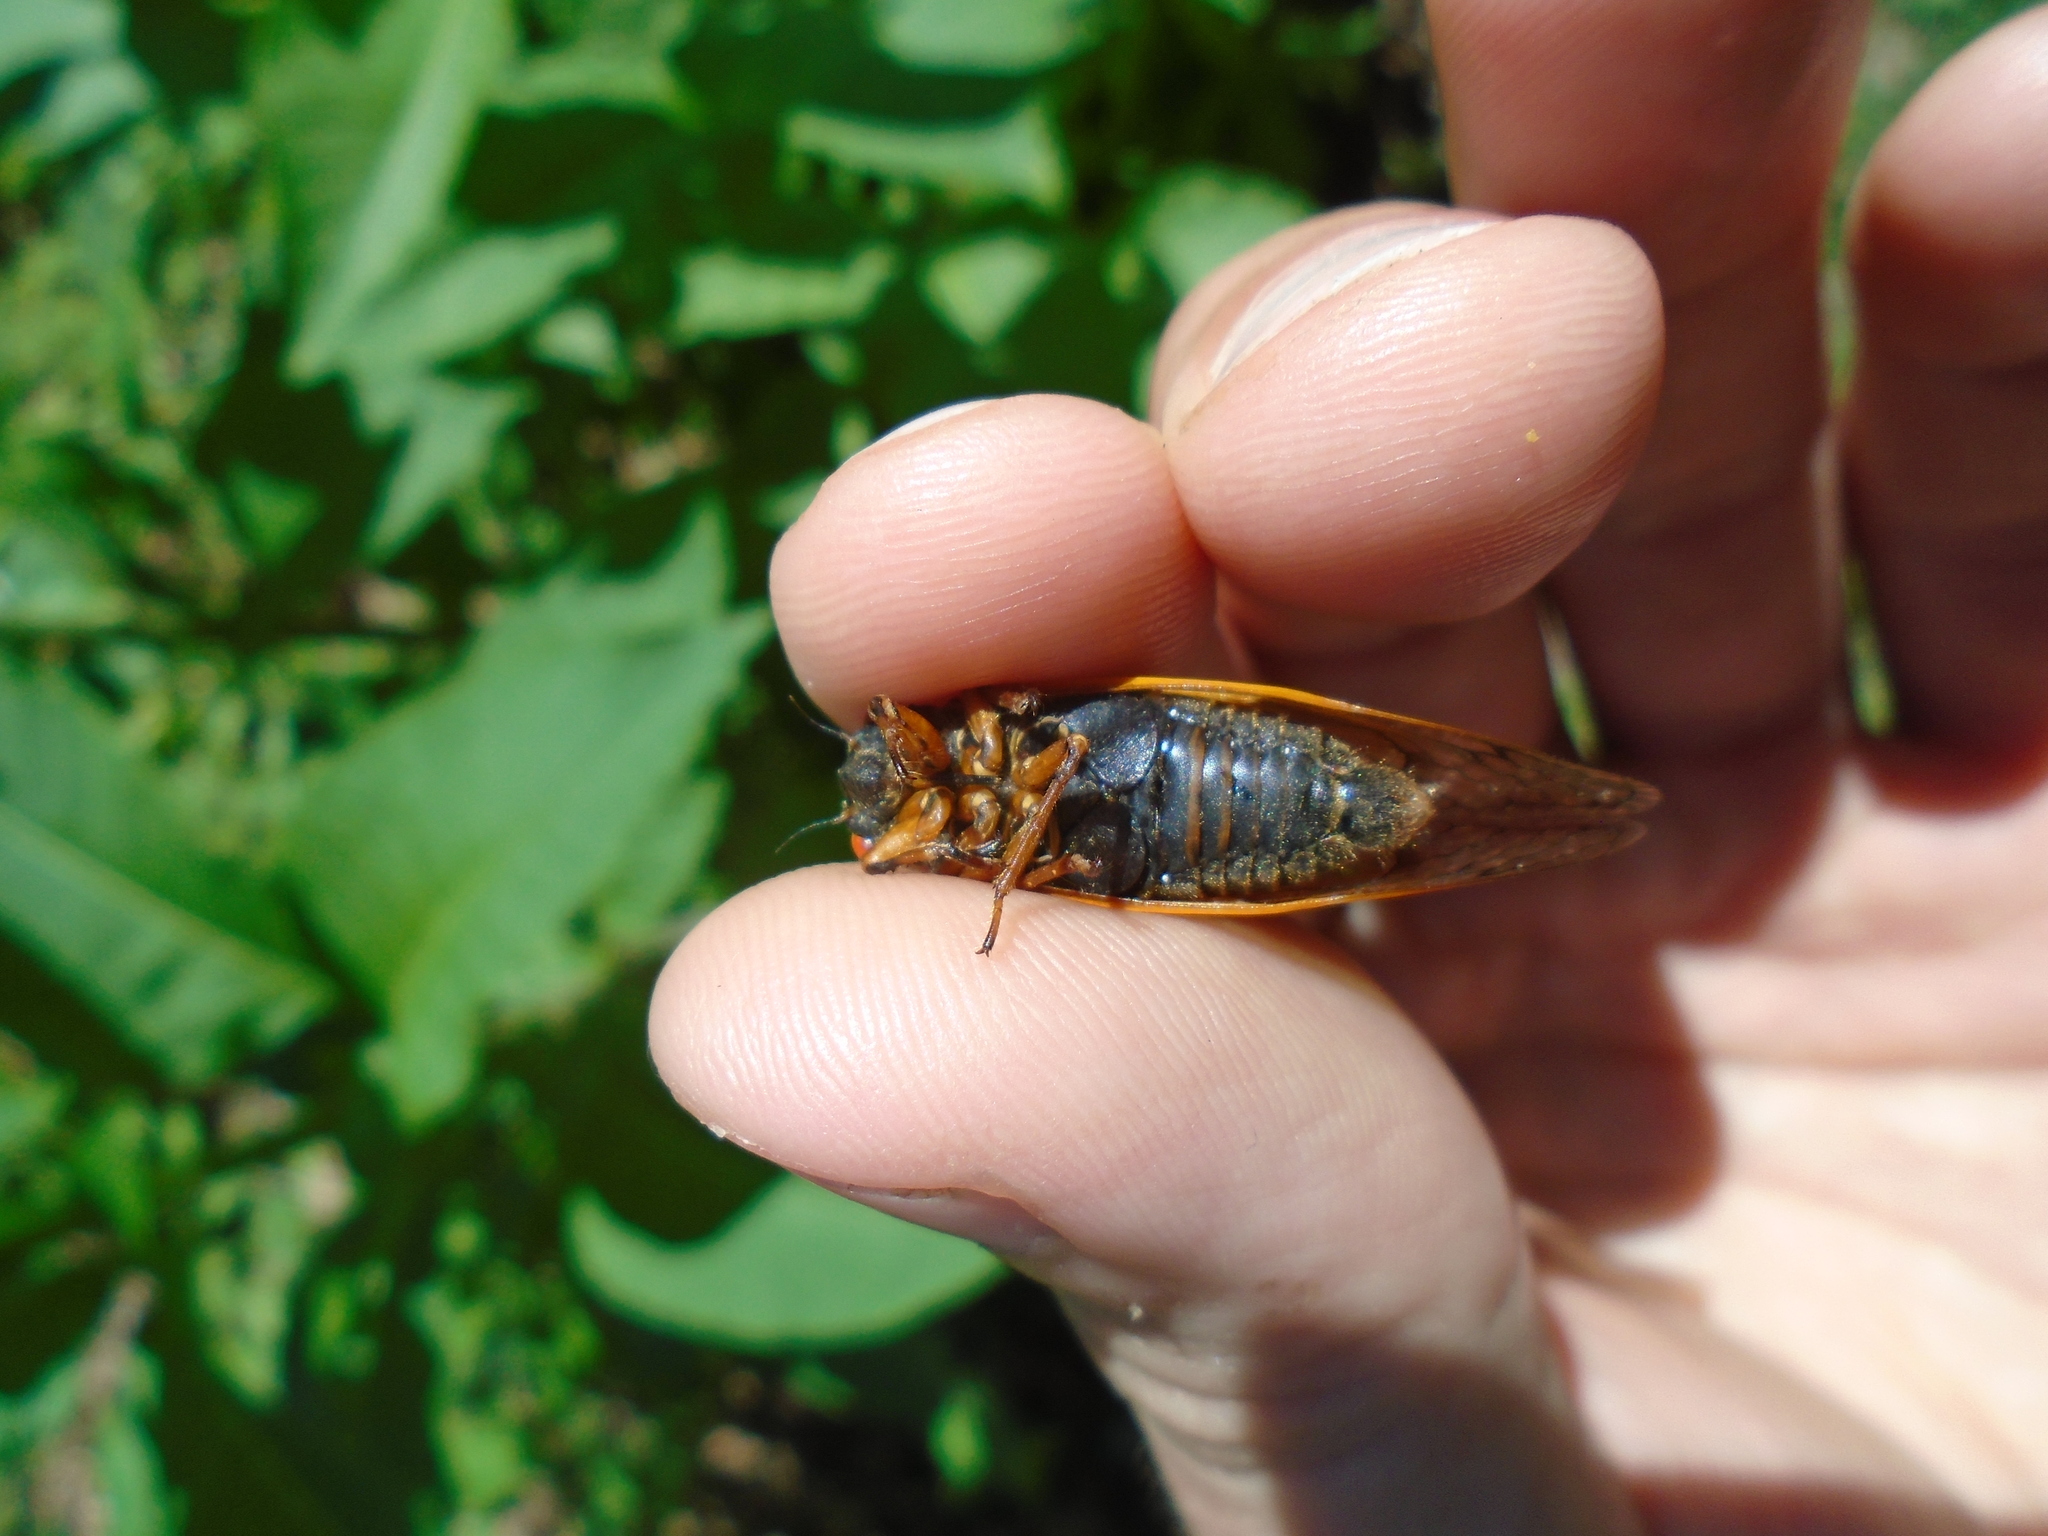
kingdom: Animalia
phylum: Arthropoda
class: Insecta
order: Hemiptera
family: Cicadidae
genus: Magicicada
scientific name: Magicicada septendecula
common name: Decula periodical cicada
